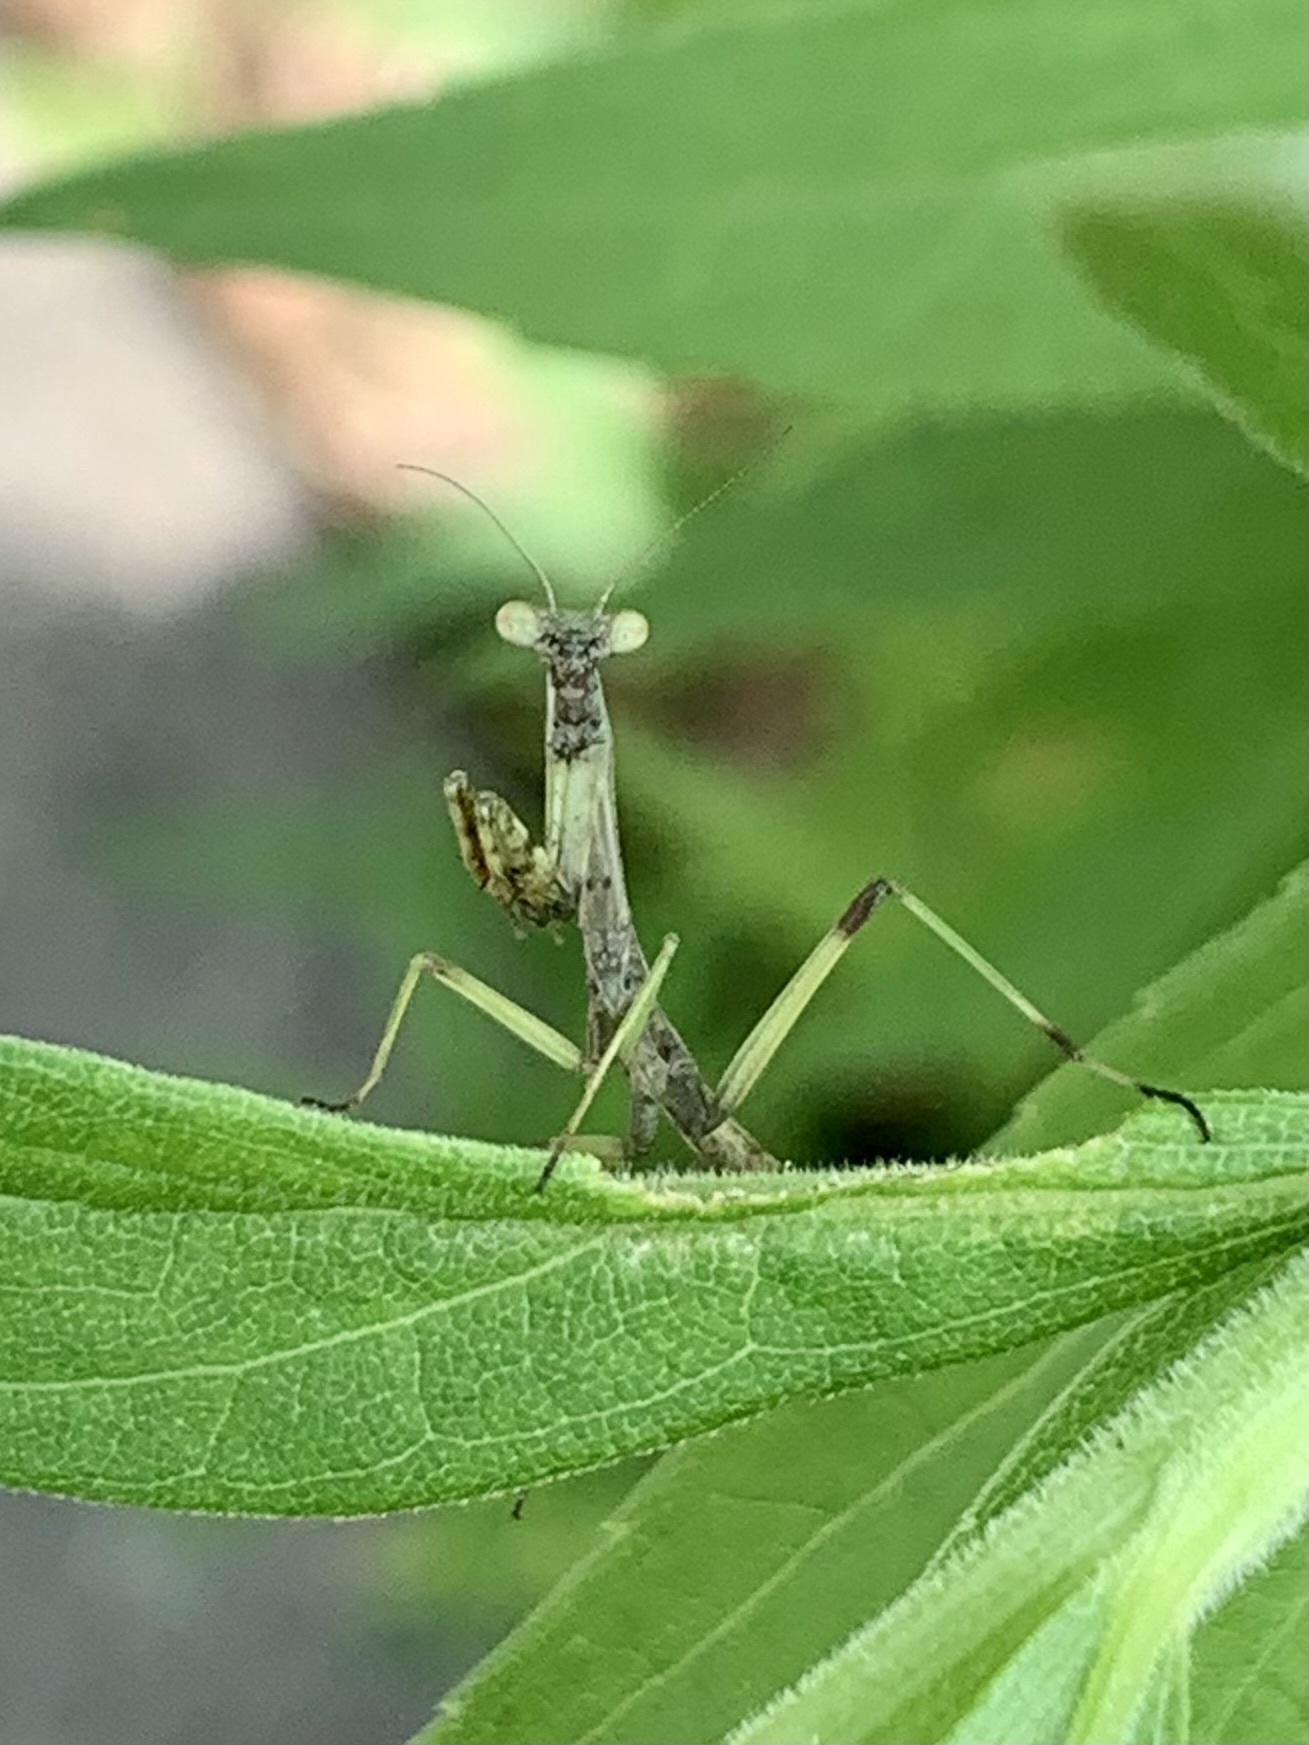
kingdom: Animalia
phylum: Arthropoda
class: Insecta
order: Mantodea
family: Mantidae
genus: Stagmomantis
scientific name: Stagmomantis carolina
